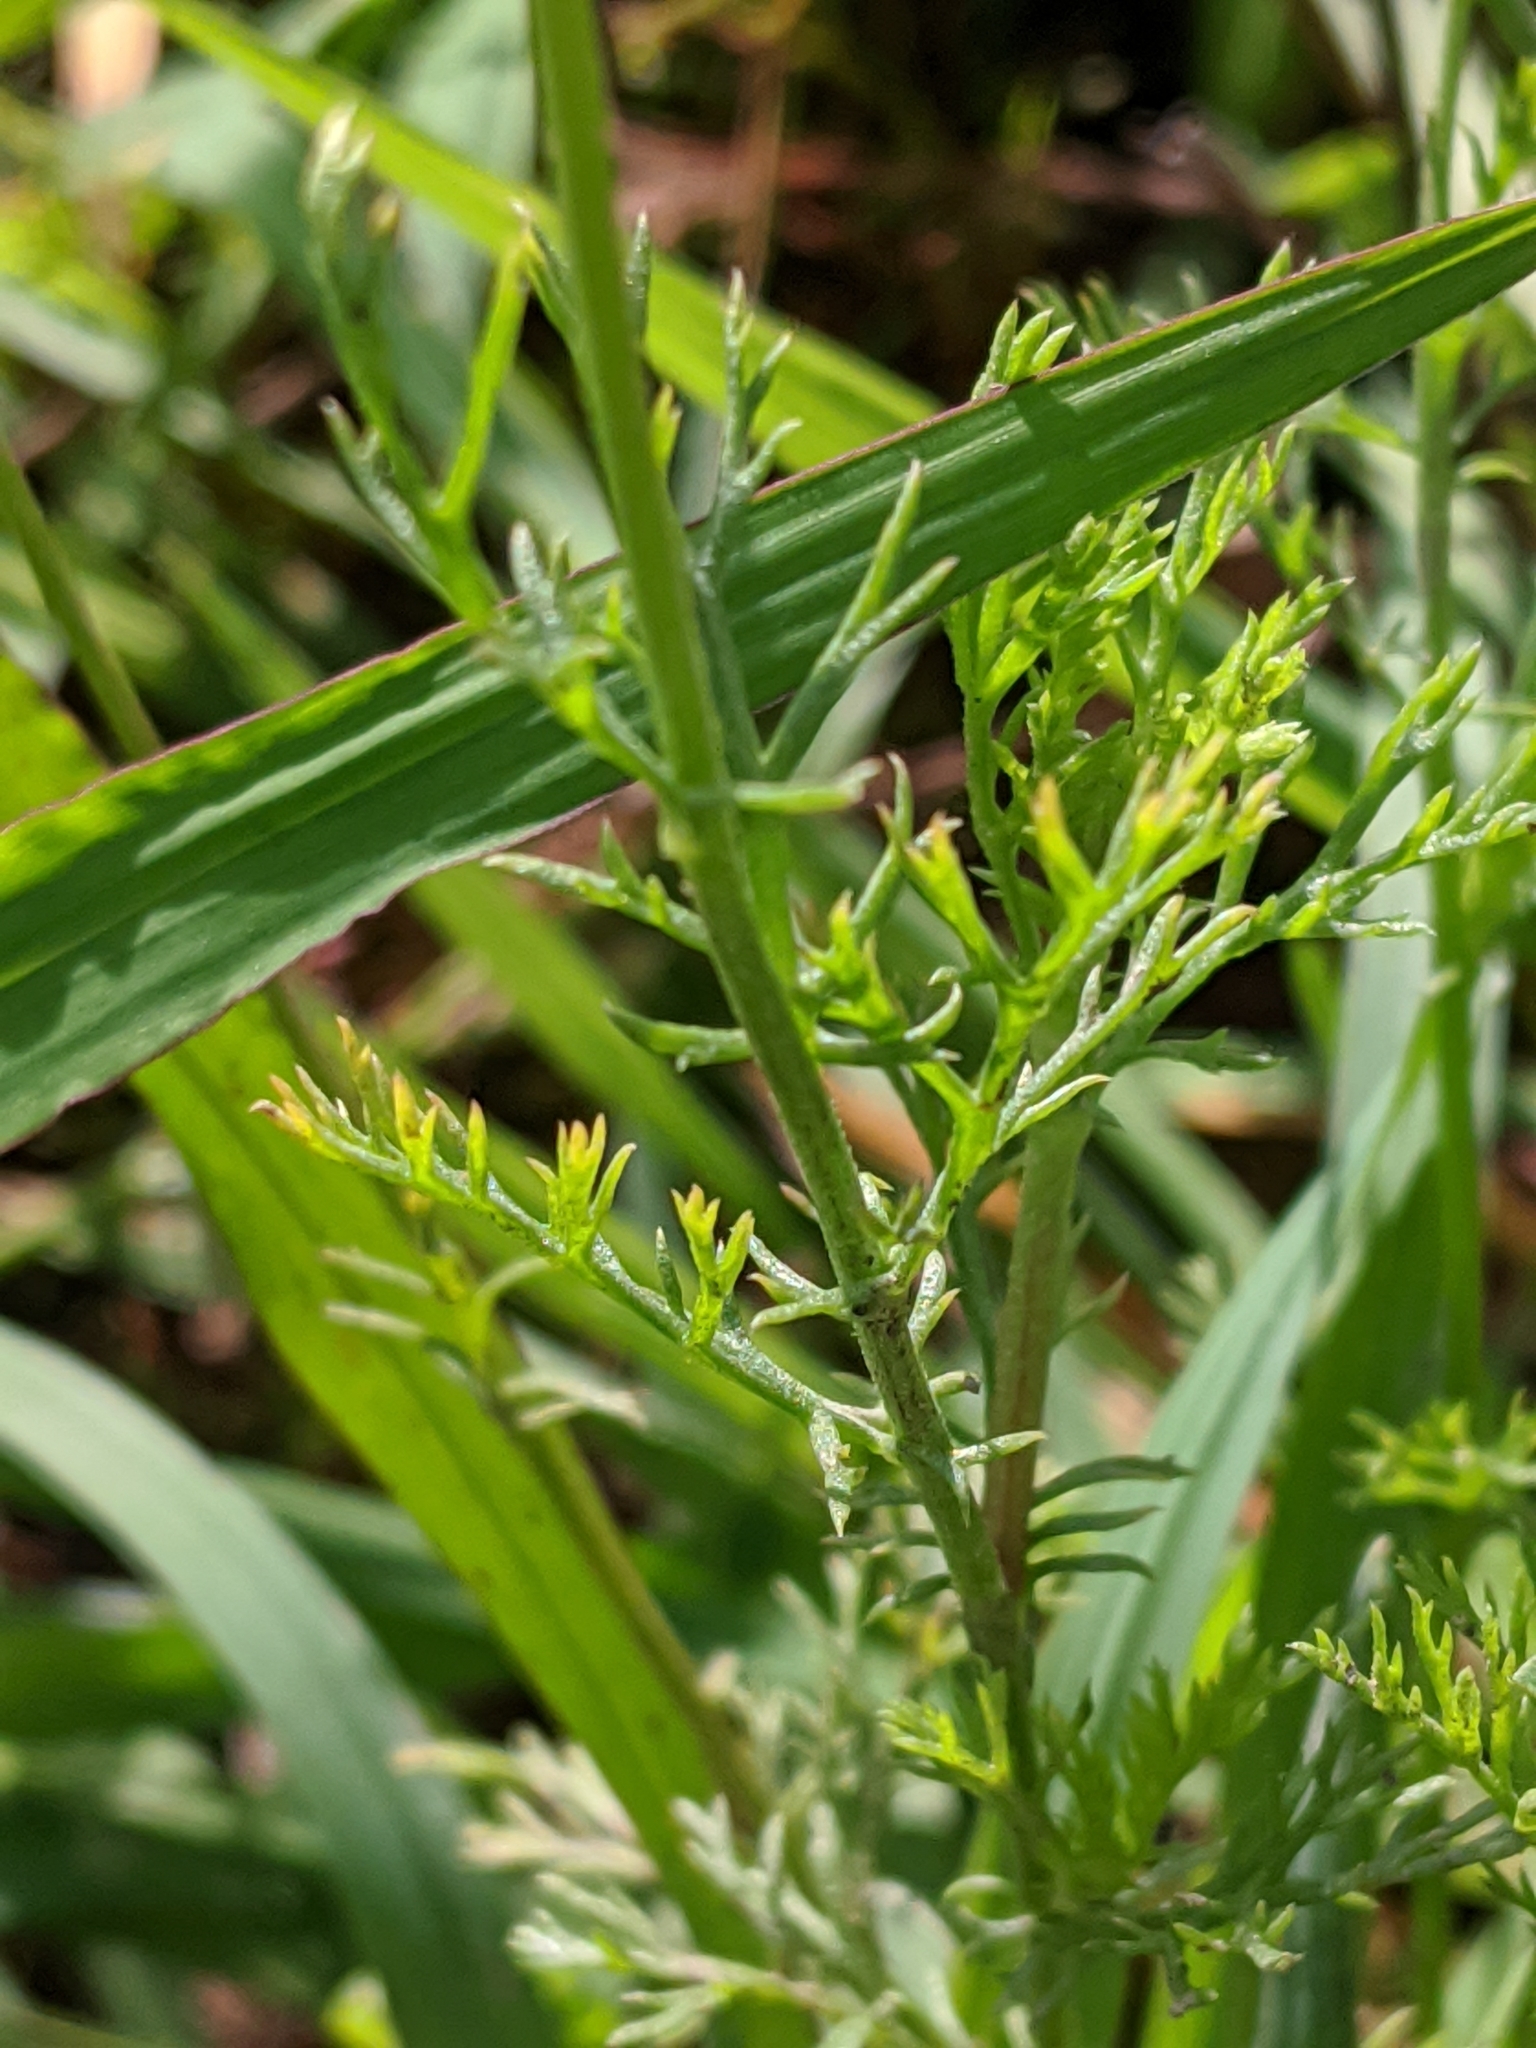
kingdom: Plantae
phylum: Tracheophyta
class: Magnoliopsida
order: Asterales
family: Asteraceae
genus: Anthemis
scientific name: Anthemis cotula
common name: Stinking chamomile
